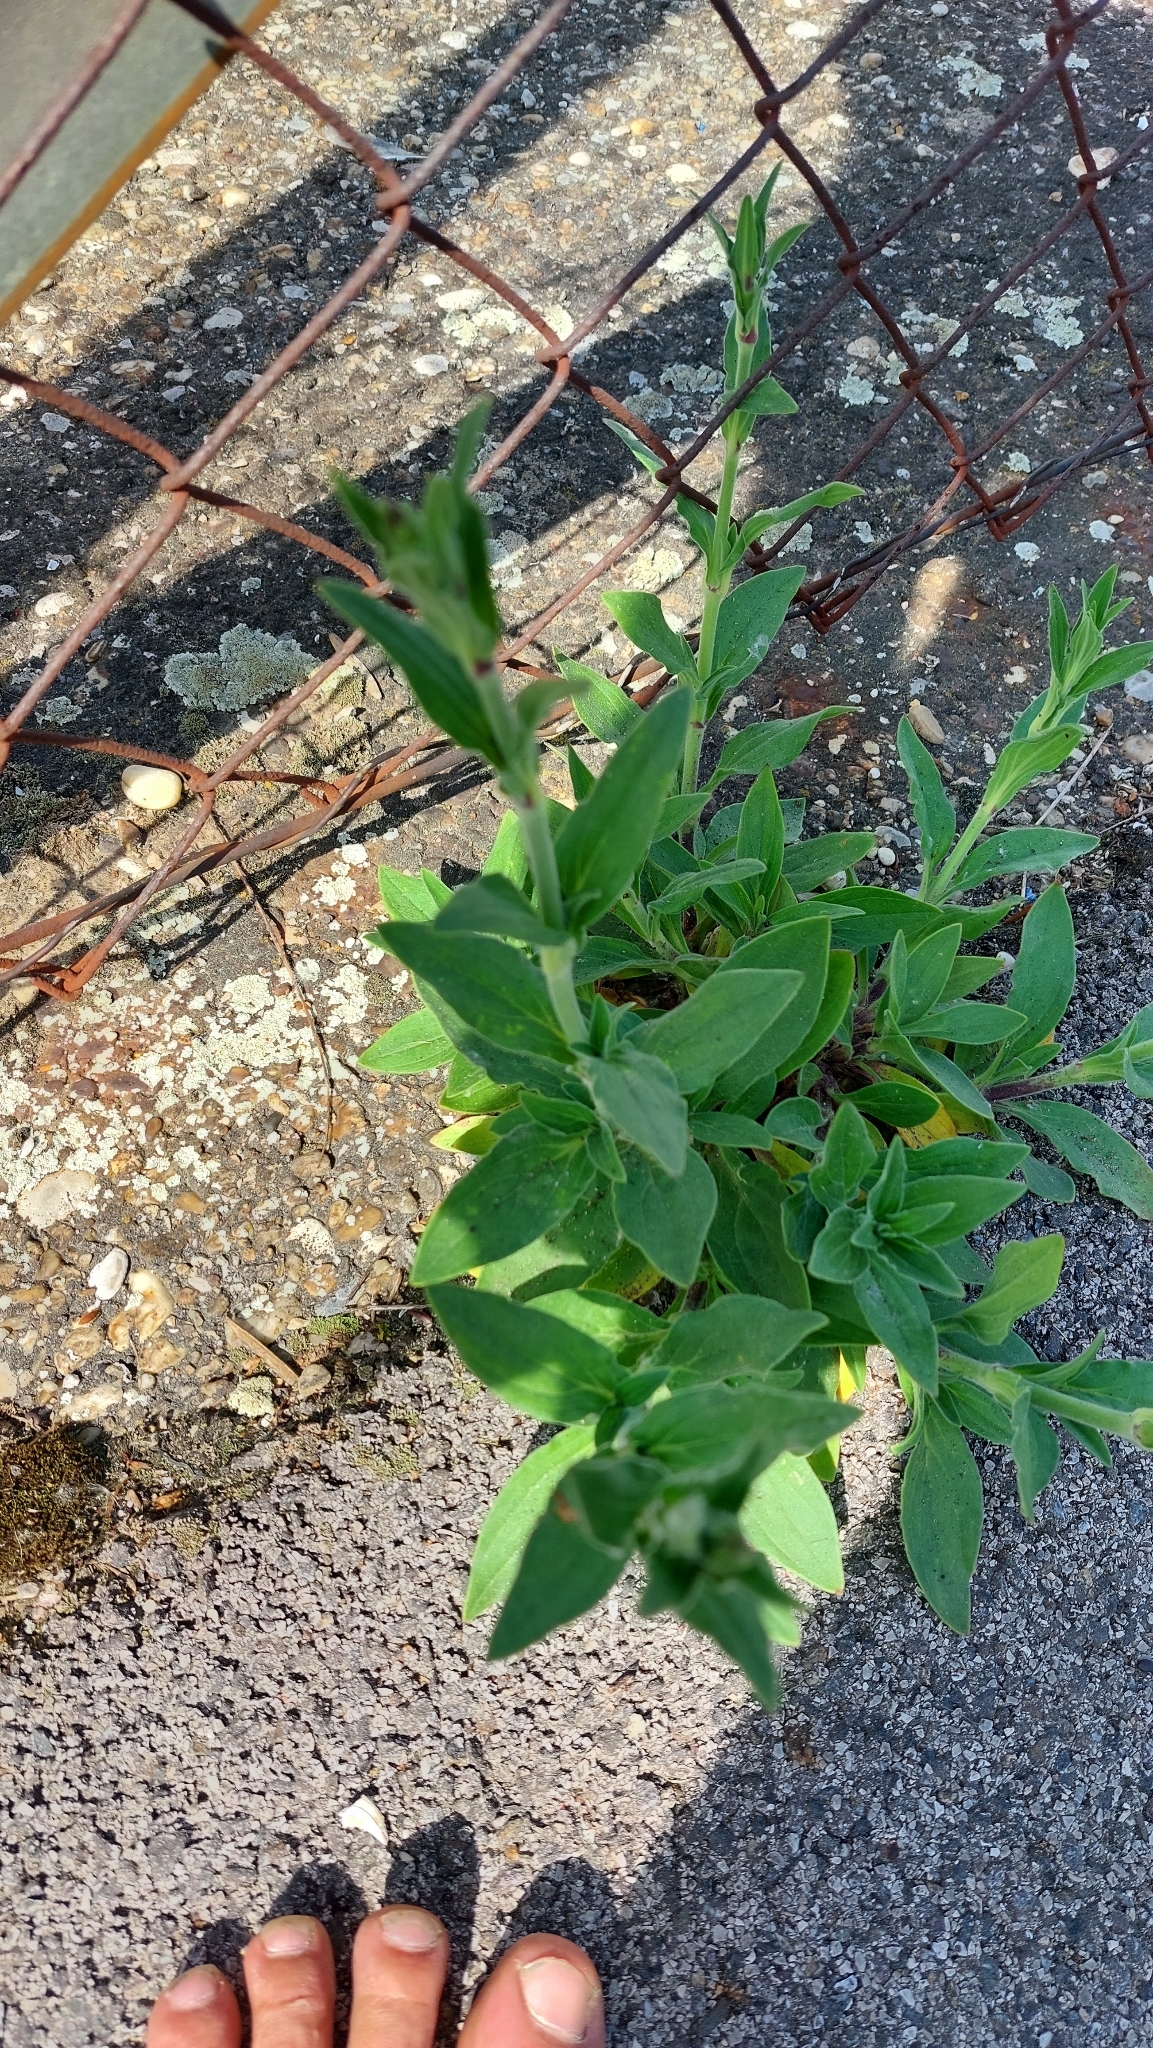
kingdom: Plantae
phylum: Tracheophyta
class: Magnoliopsida
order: Caryophyllales
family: Caryophyllaceae
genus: Silene
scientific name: Silene latifolia
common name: White campion
